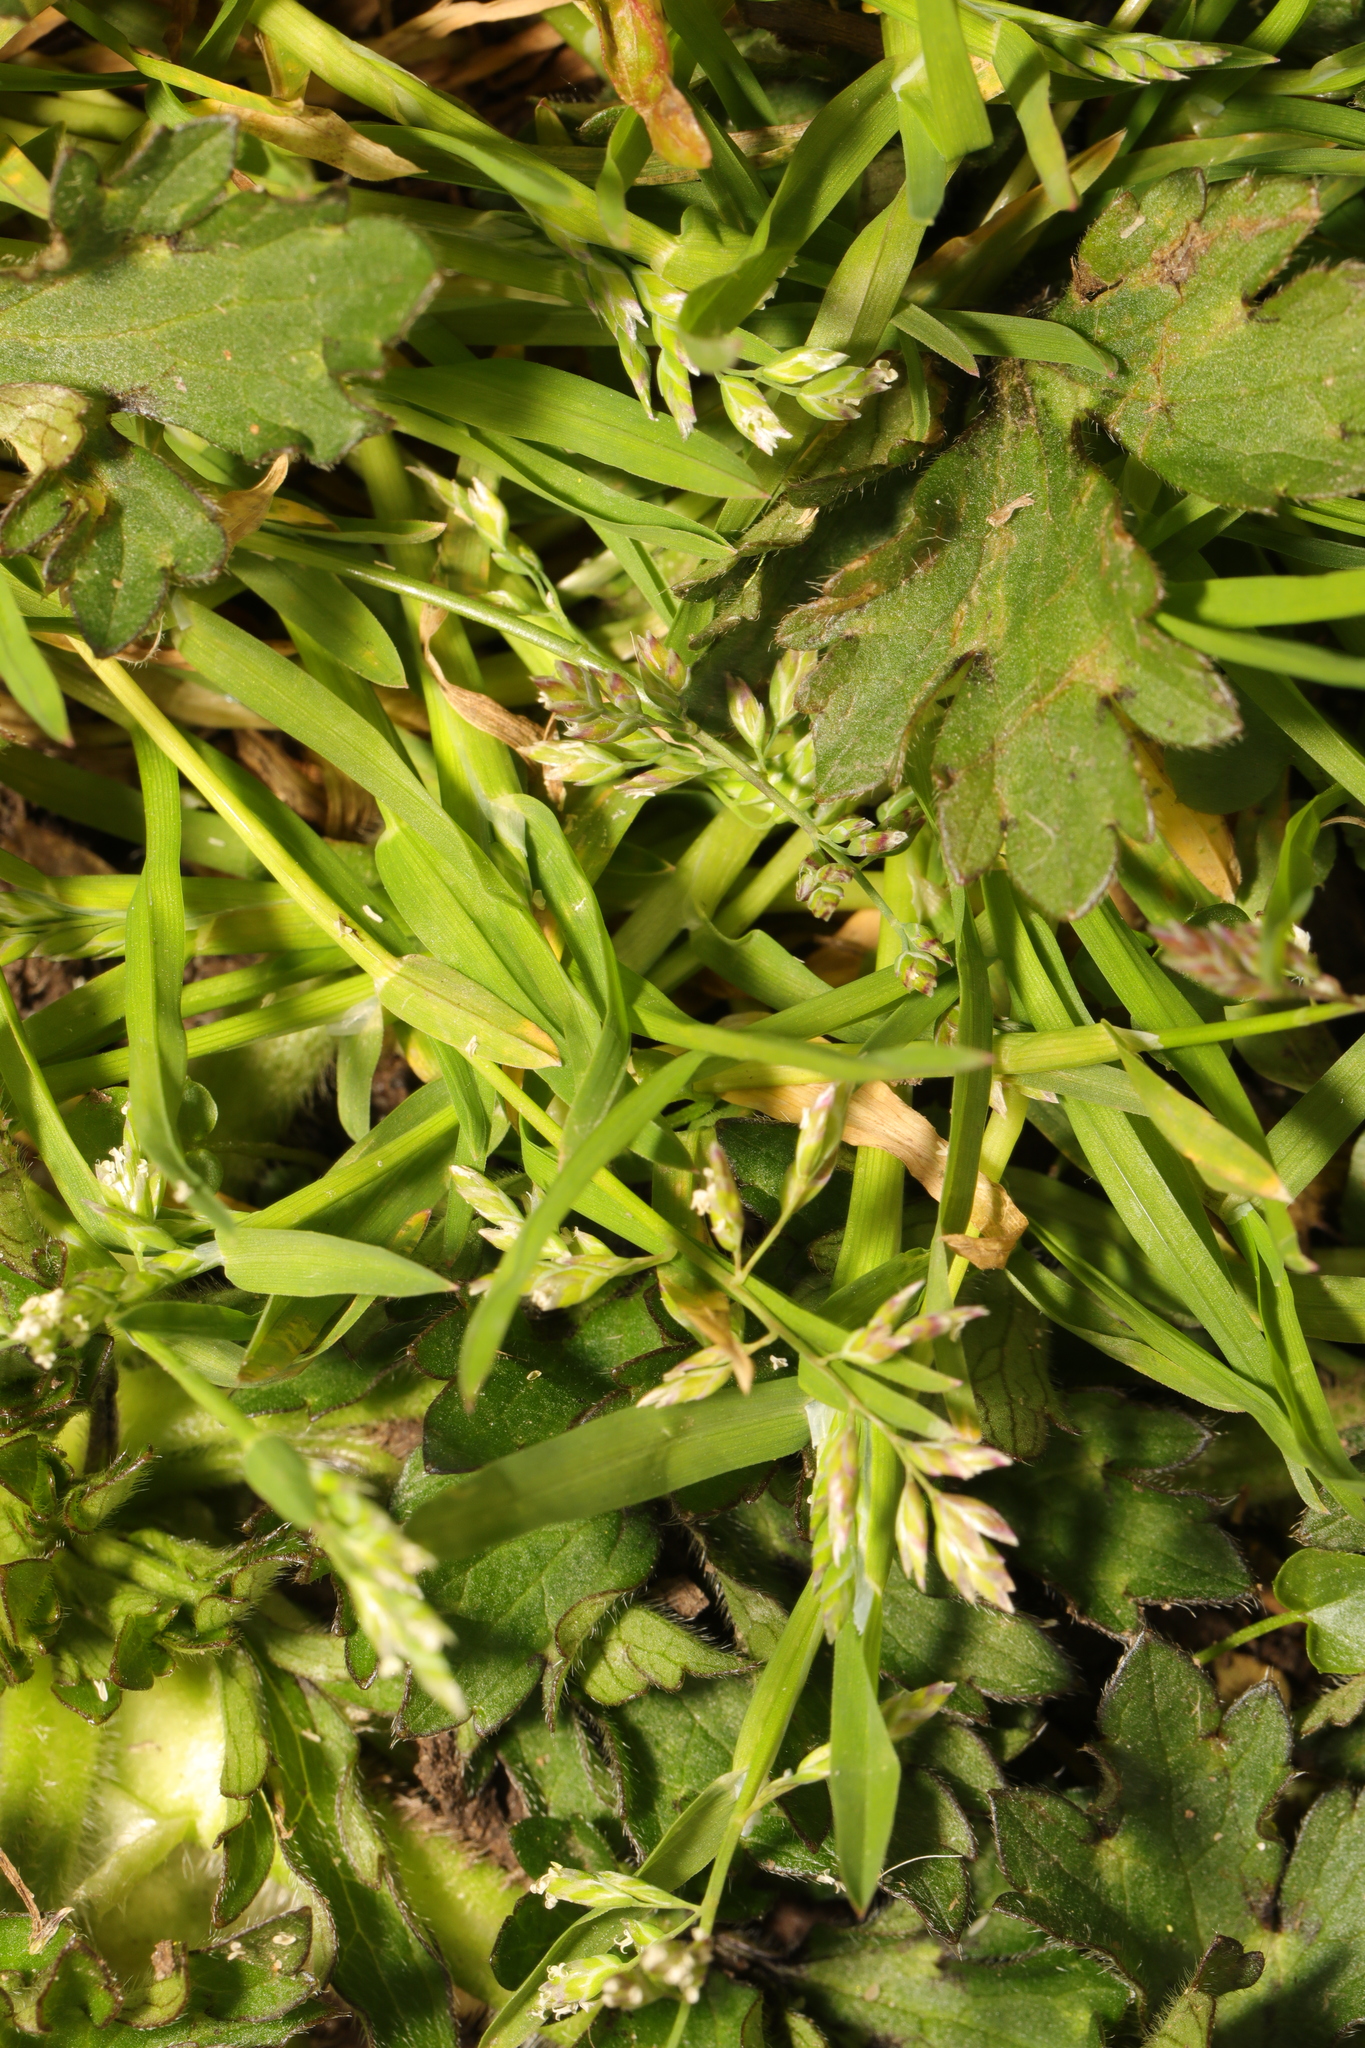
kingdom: Plantae
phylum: Tracheophyta
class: Liliopsida
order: Poales
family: Poaceae
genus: Poa
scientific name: Poa annua
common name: Annual bluegrass
